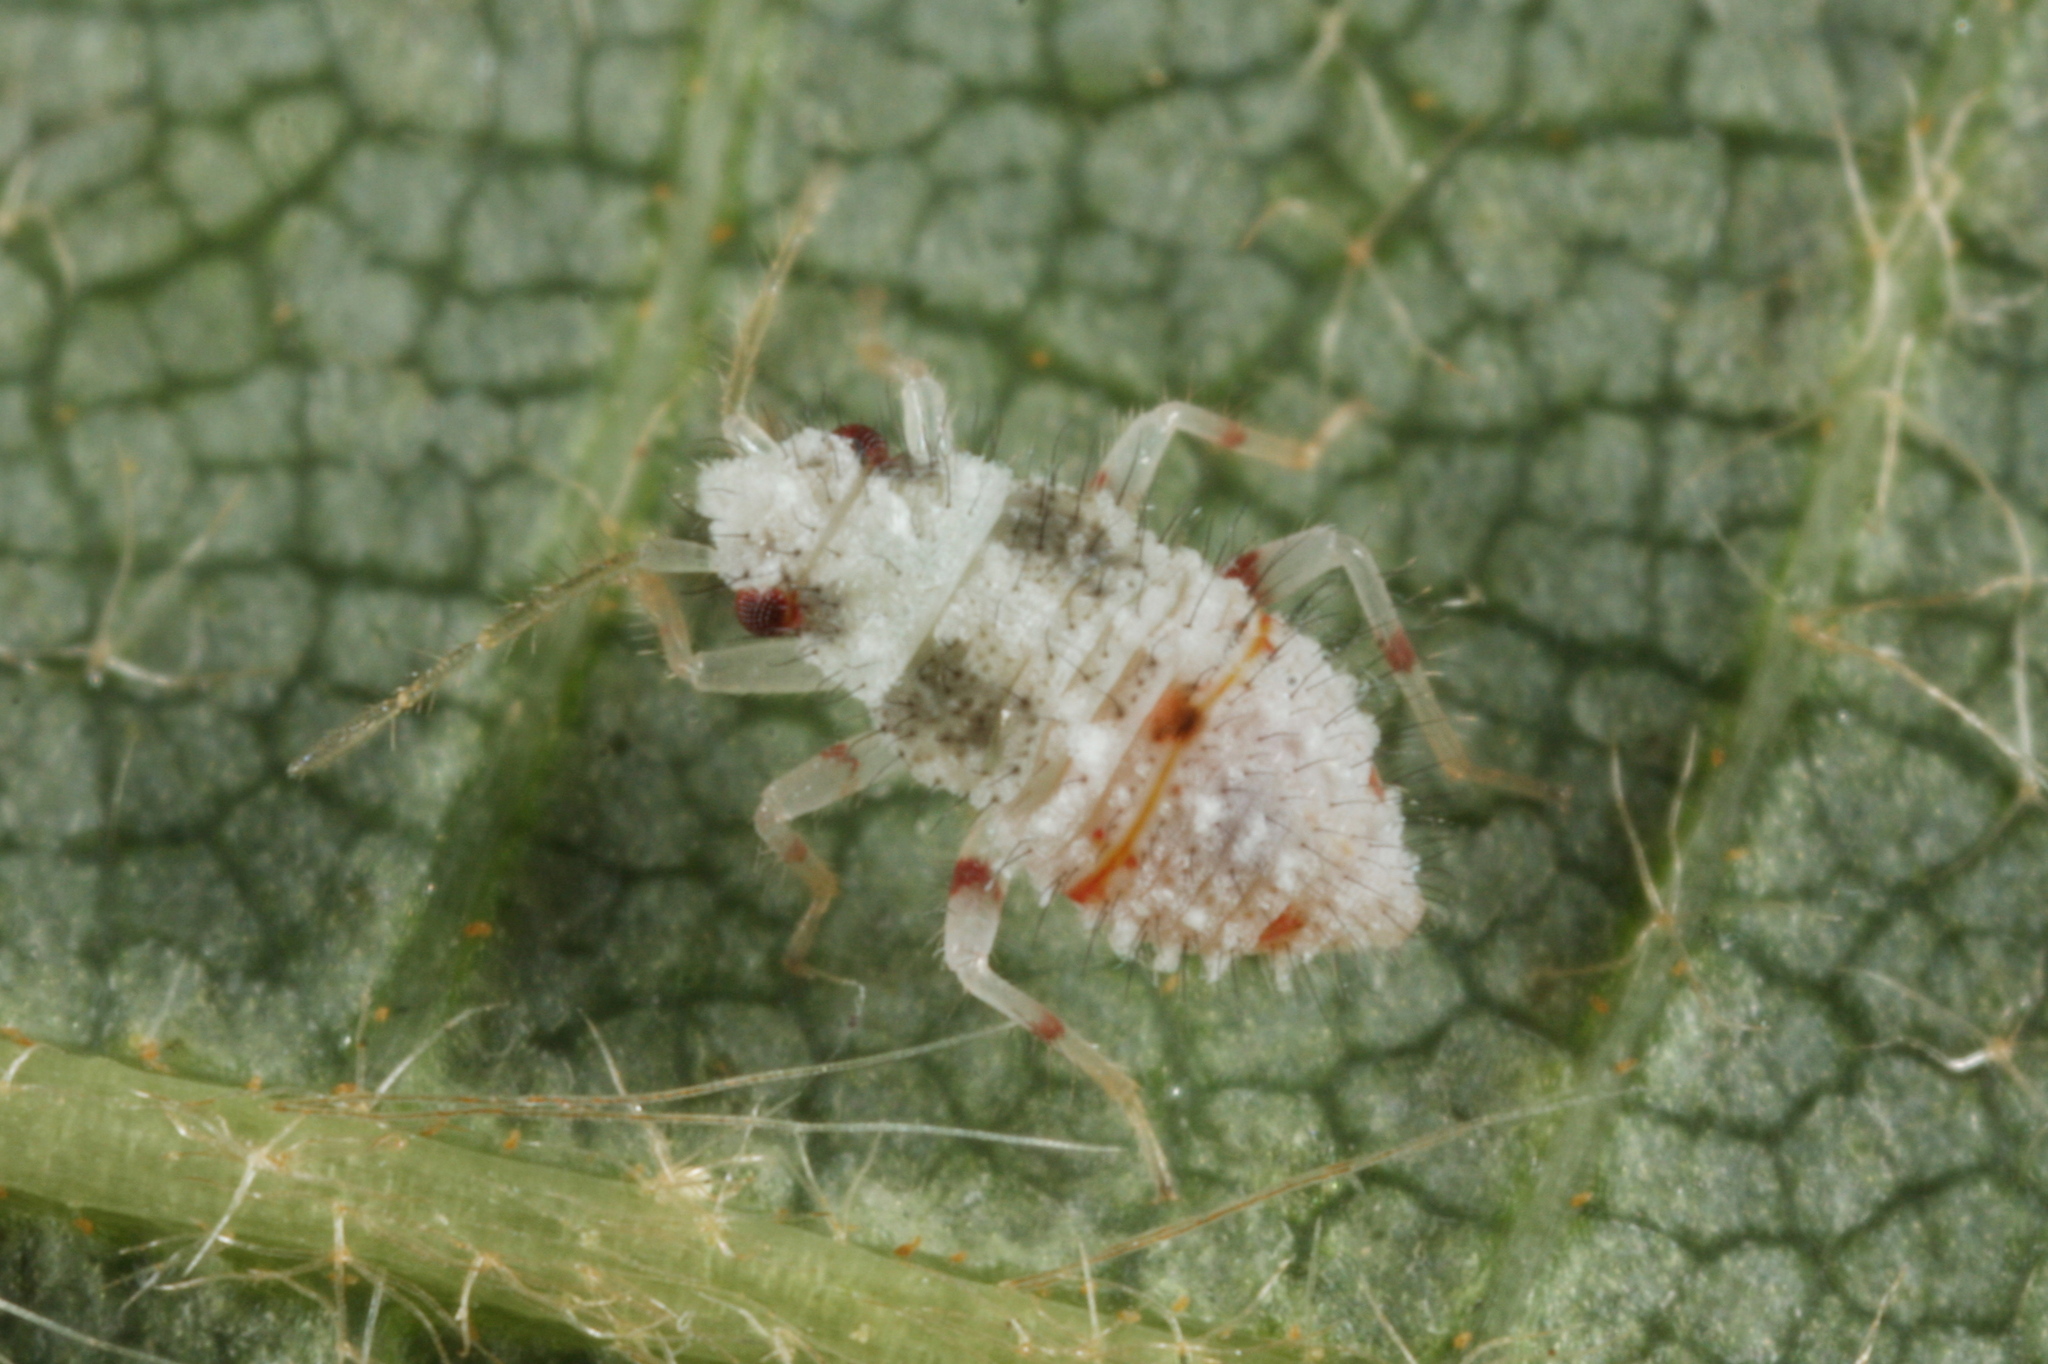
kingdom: Animalia
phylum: Arthropoda
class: Insecta
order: Hemiptera
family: Miridae
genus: Deraeocoris
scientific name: Deraeocoris lutescens
